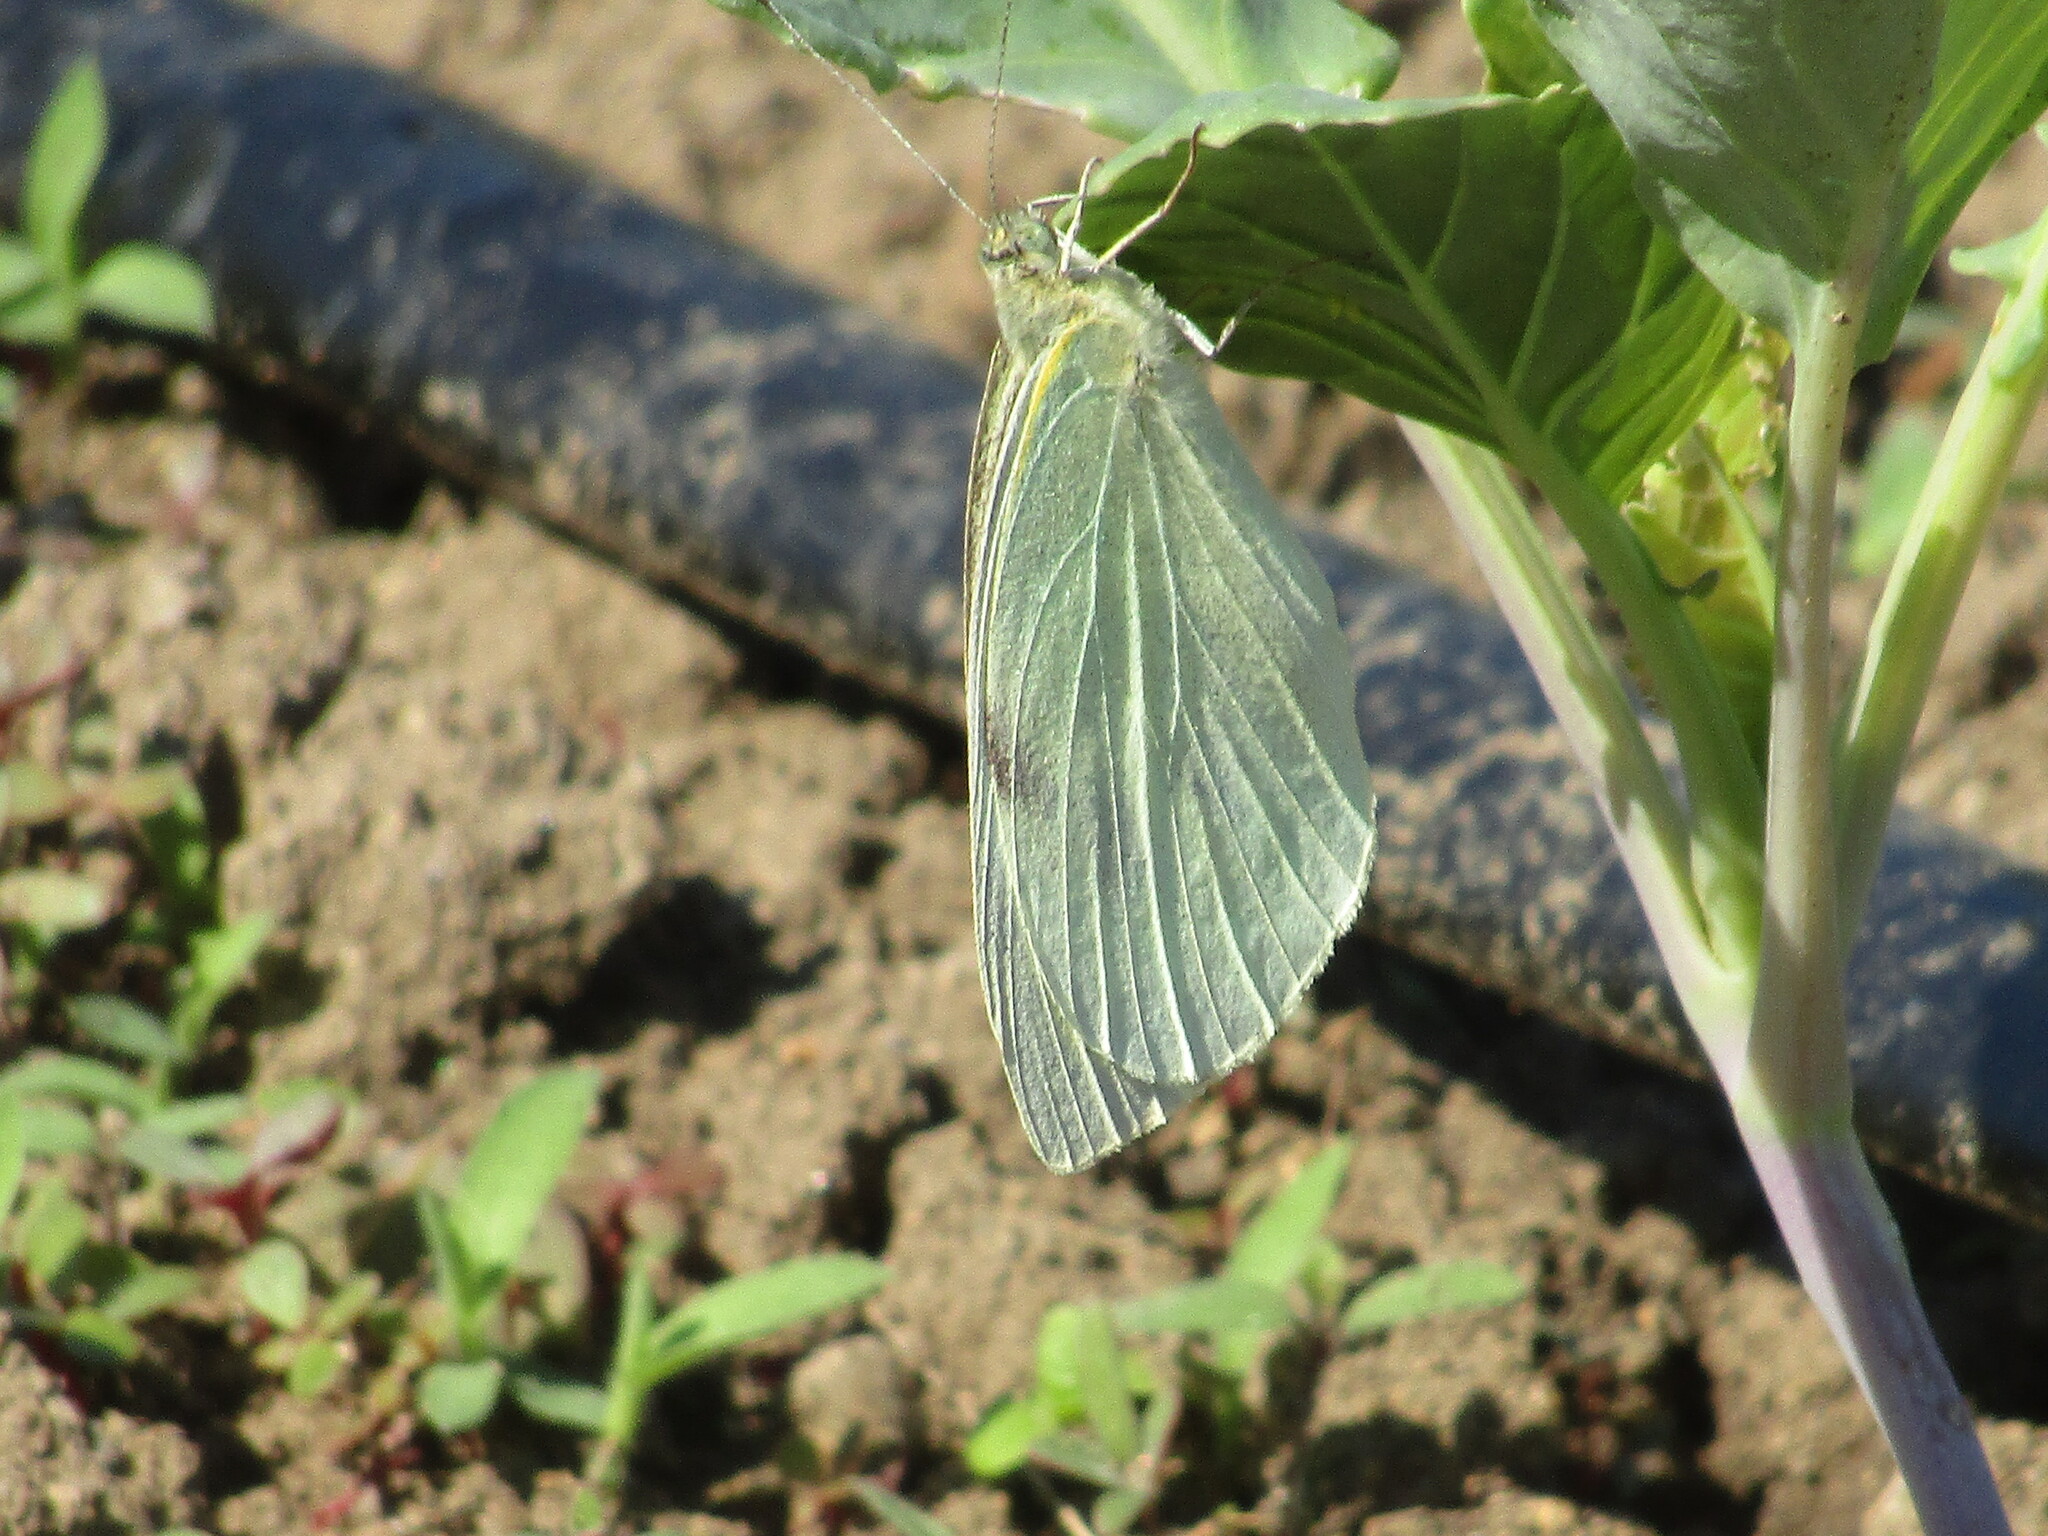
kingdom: Animalia
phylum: Arthropoda
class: Insecta
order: Lepidoptera
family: Pieridae
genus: Pieris
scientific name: Pieris brassicae
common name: Large white
